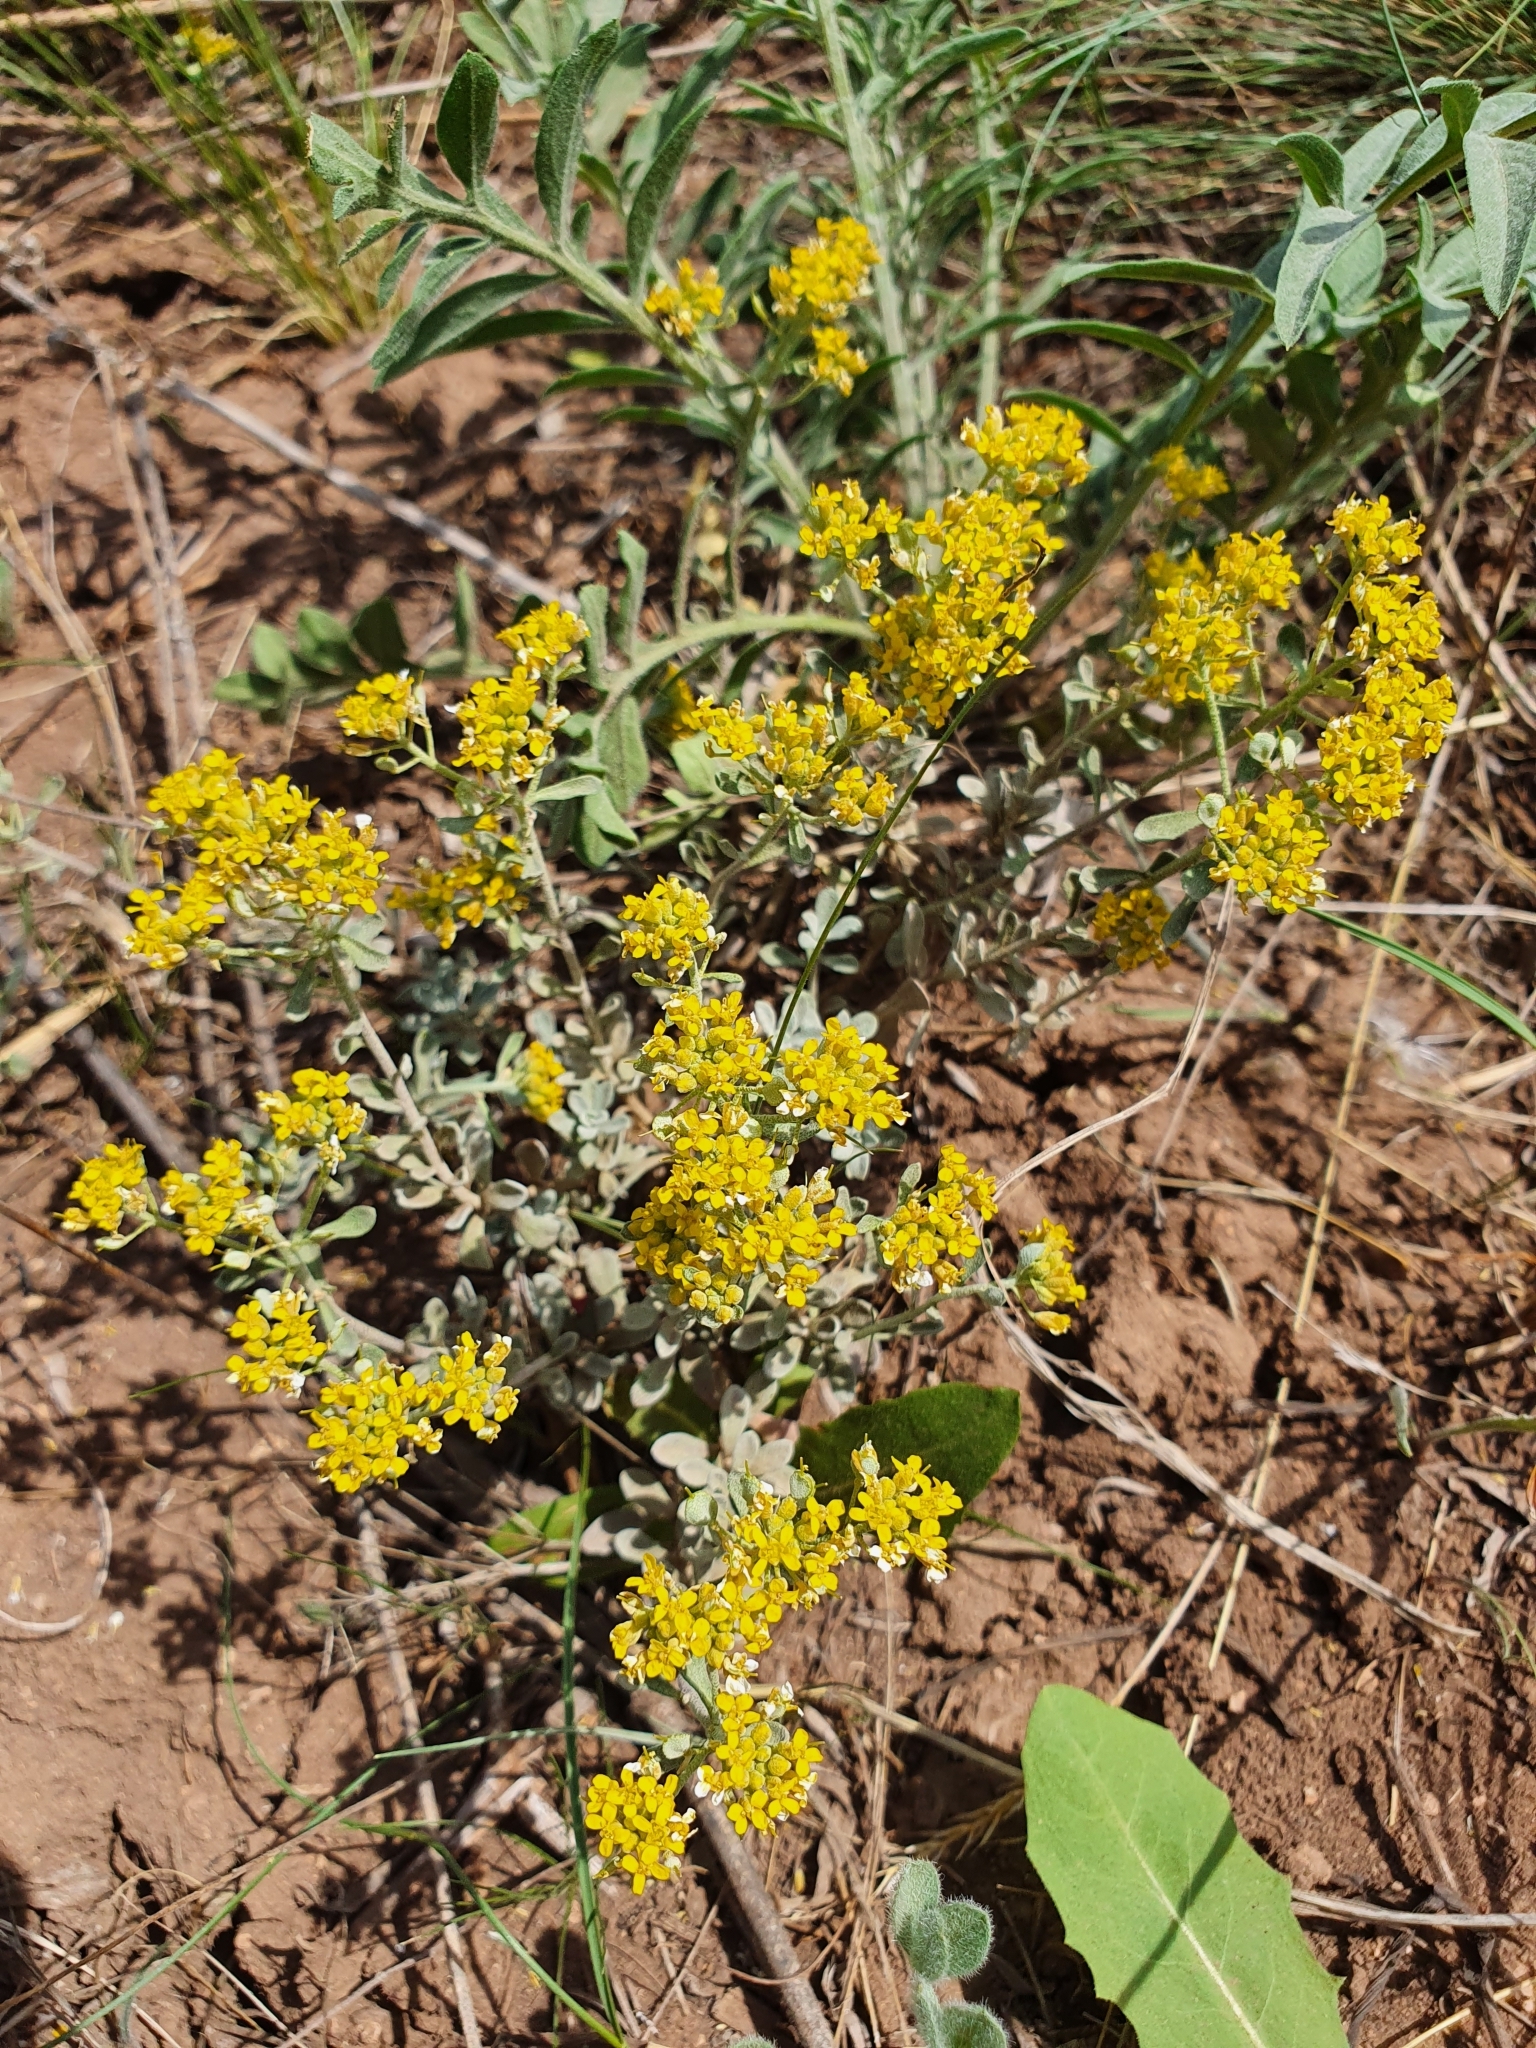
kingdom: Plantae
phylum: Tracheophyta
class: Magnoliopsida
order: Brassicales
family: Brassicaceae
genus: Odontarrhena
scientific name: Odontarrhena tortuosa
